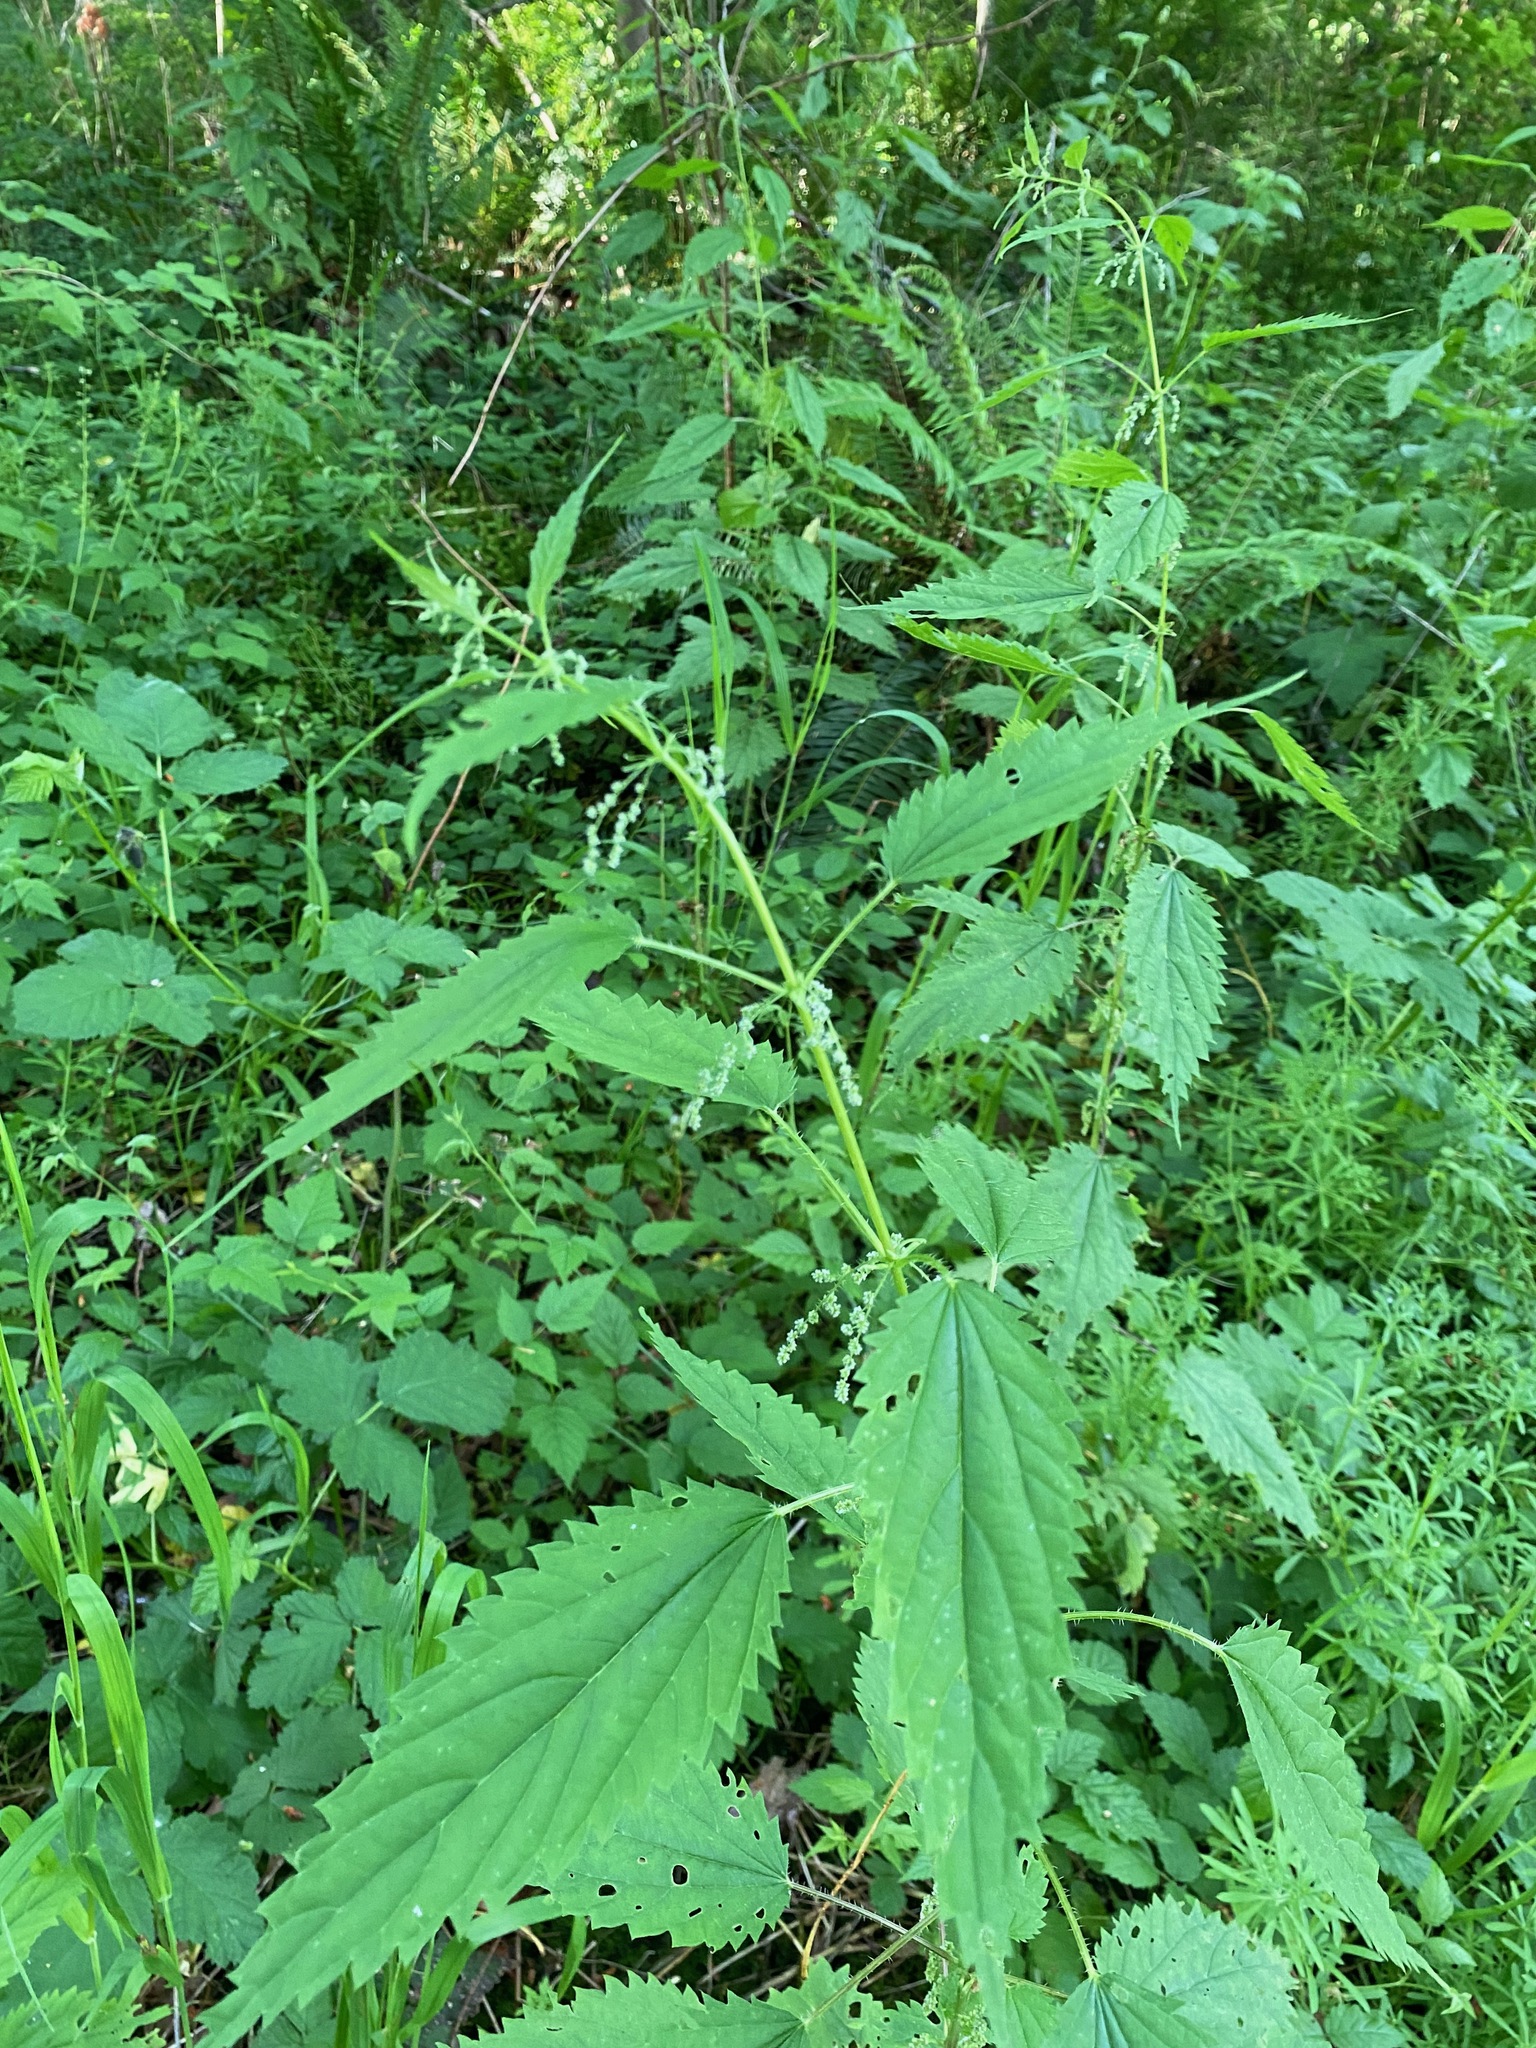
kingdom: Plantae
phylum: Tracheophyta
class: Magnoliopsida
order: Rosales
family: Urticaceae
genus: Urtica
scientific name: Urtica dioica
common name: Common nettle
